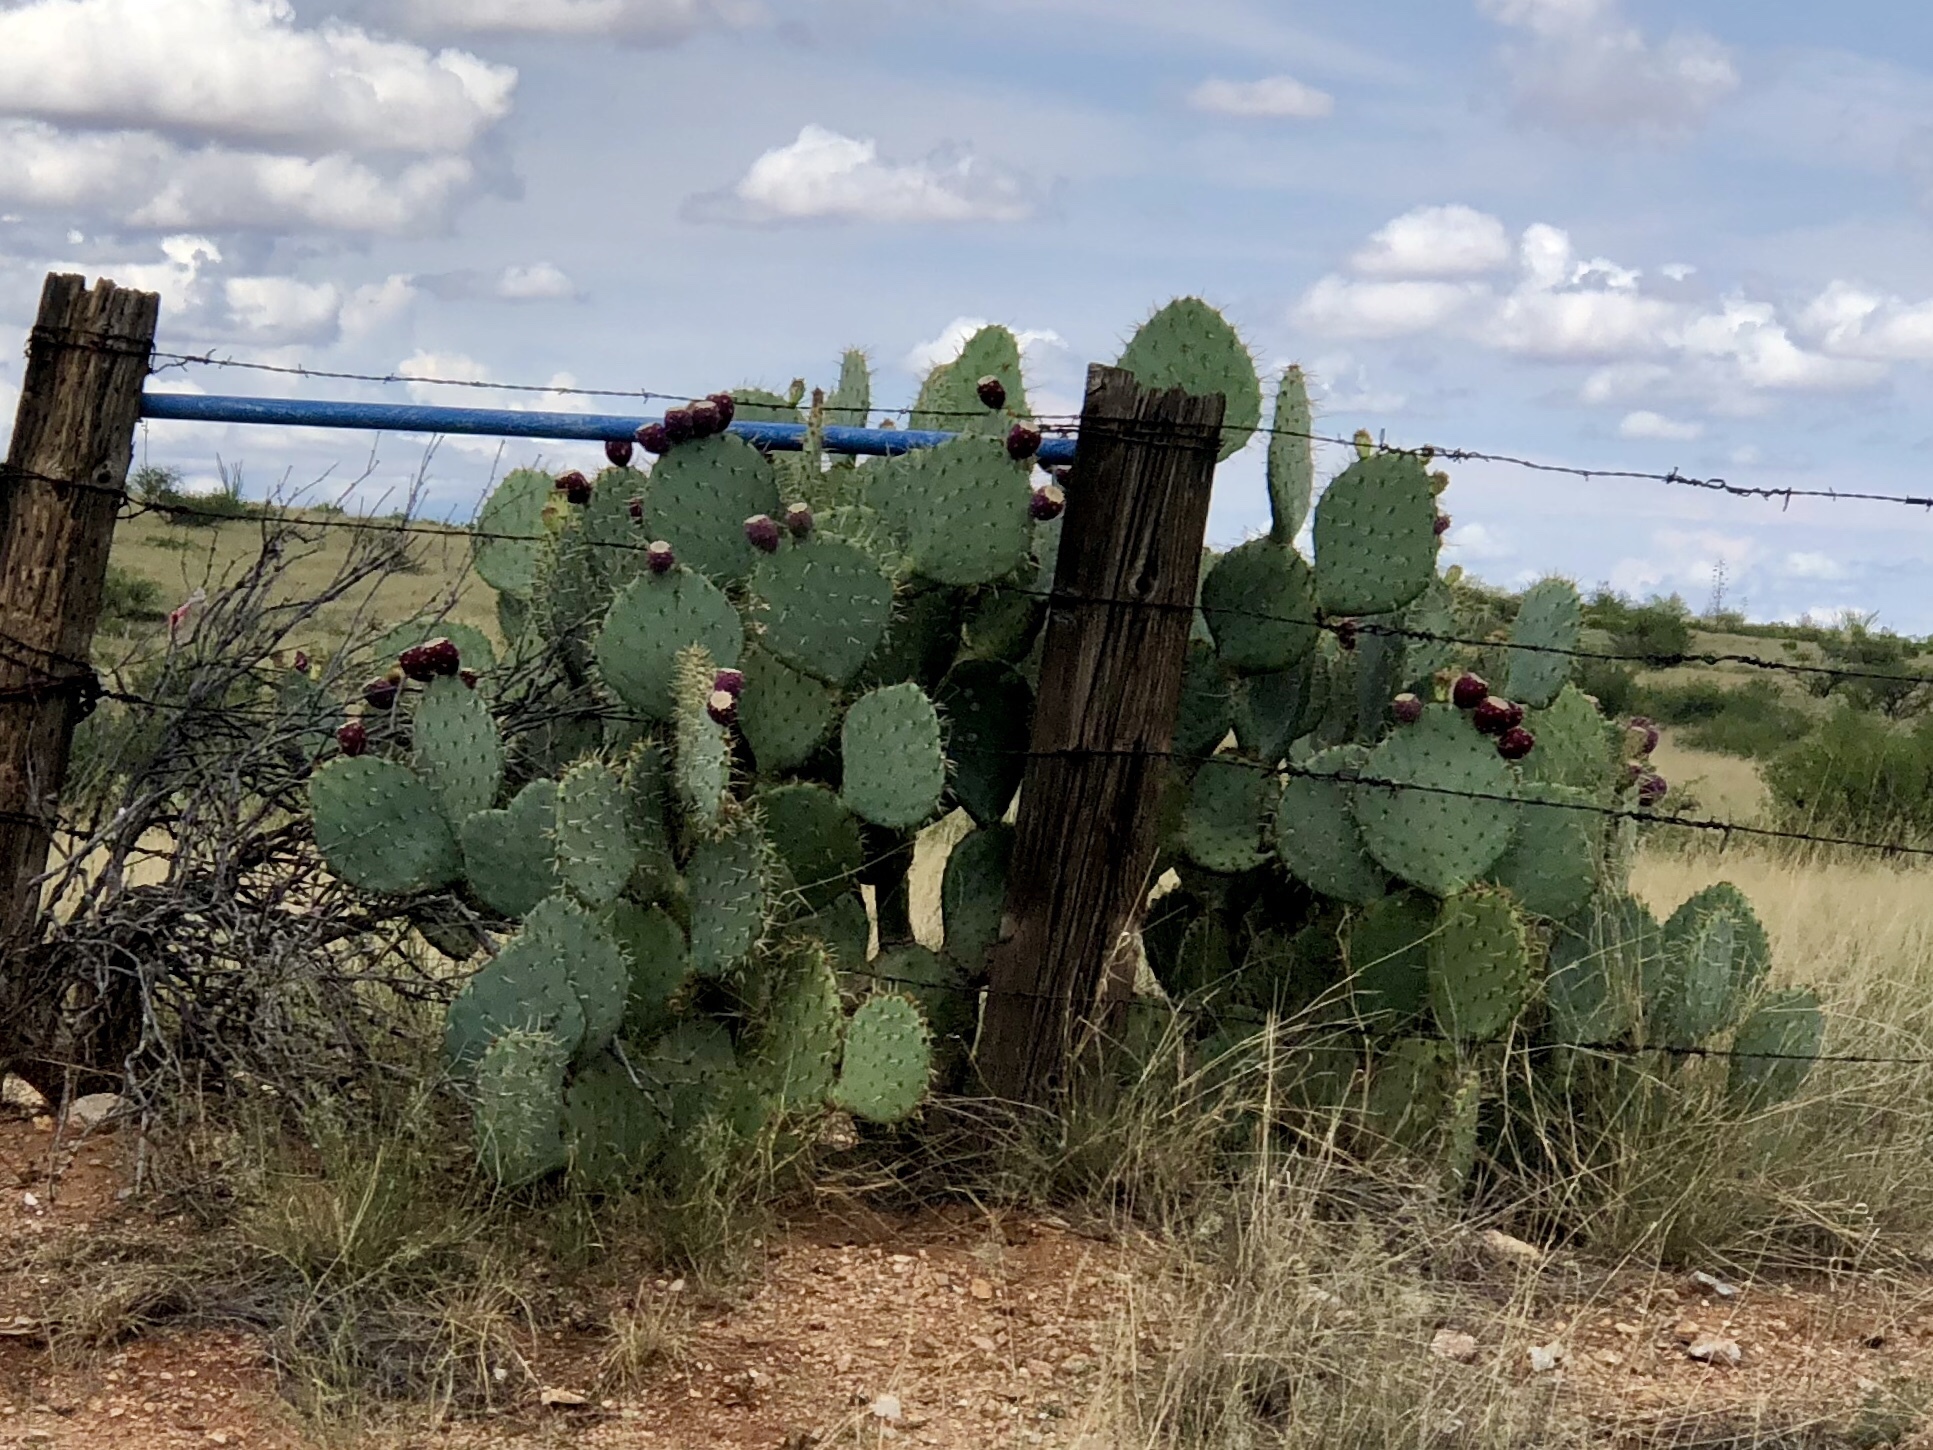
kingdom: Plantae
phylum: Tracheophyta
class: Magnoliopsida
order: Caryophyllales
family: Cactaceae
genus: Opuntia
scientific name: Opuntia engelmannii
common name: Cactus-apple
